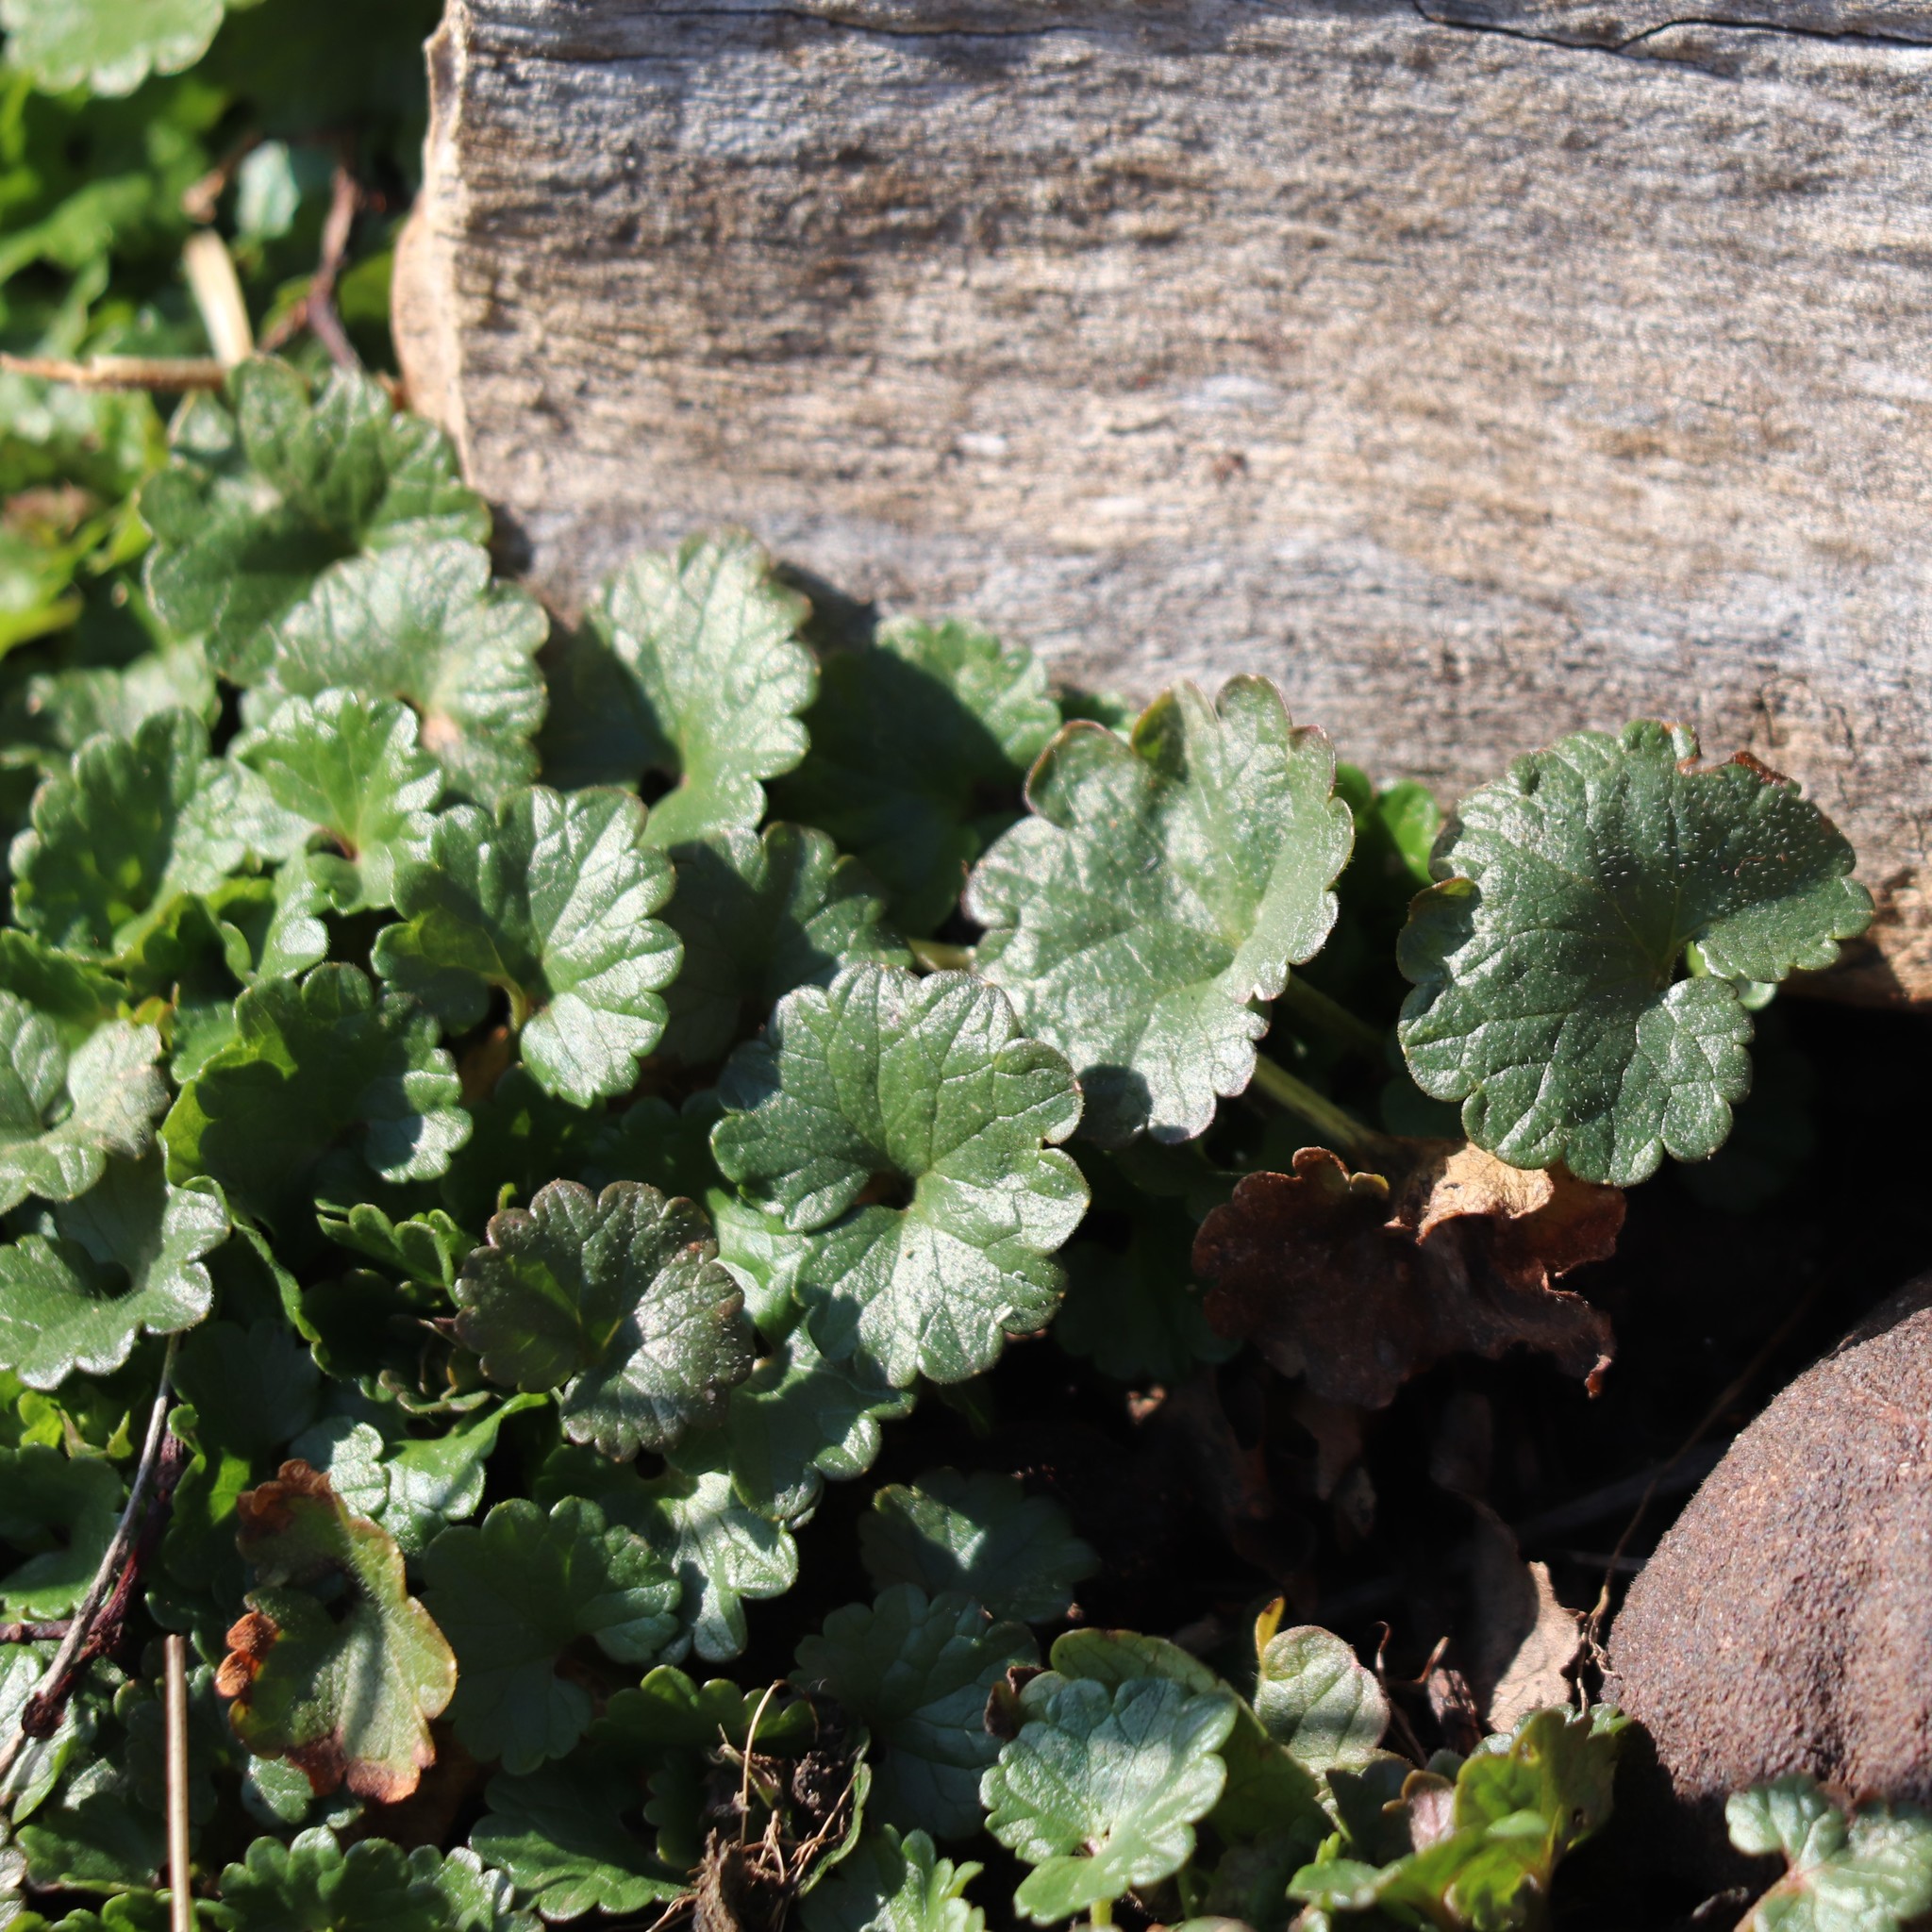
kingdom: Plantae
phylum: Tracheophyta
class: Magnoliopsida
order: Lamiales
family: Lamiaceae
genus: Glechoma
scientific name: Glechoma hederacea
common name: Ground ivy
